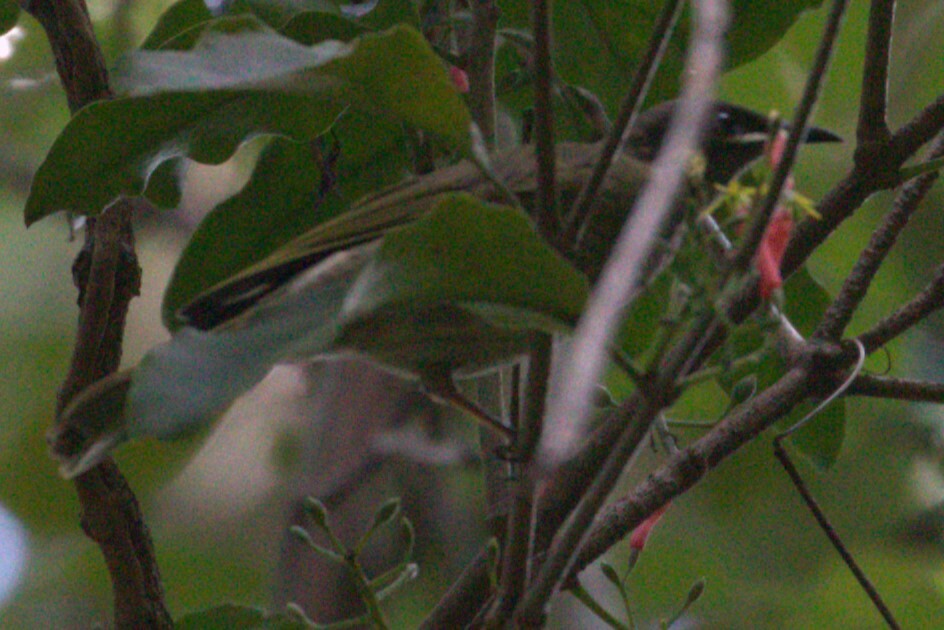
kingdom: Animalia
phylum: Chordata
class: Aves
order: Passeriformes
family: Meliphagidae
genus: Meliphaga
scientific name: Meliphaga lewinii
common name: Lewin's honeyeater
